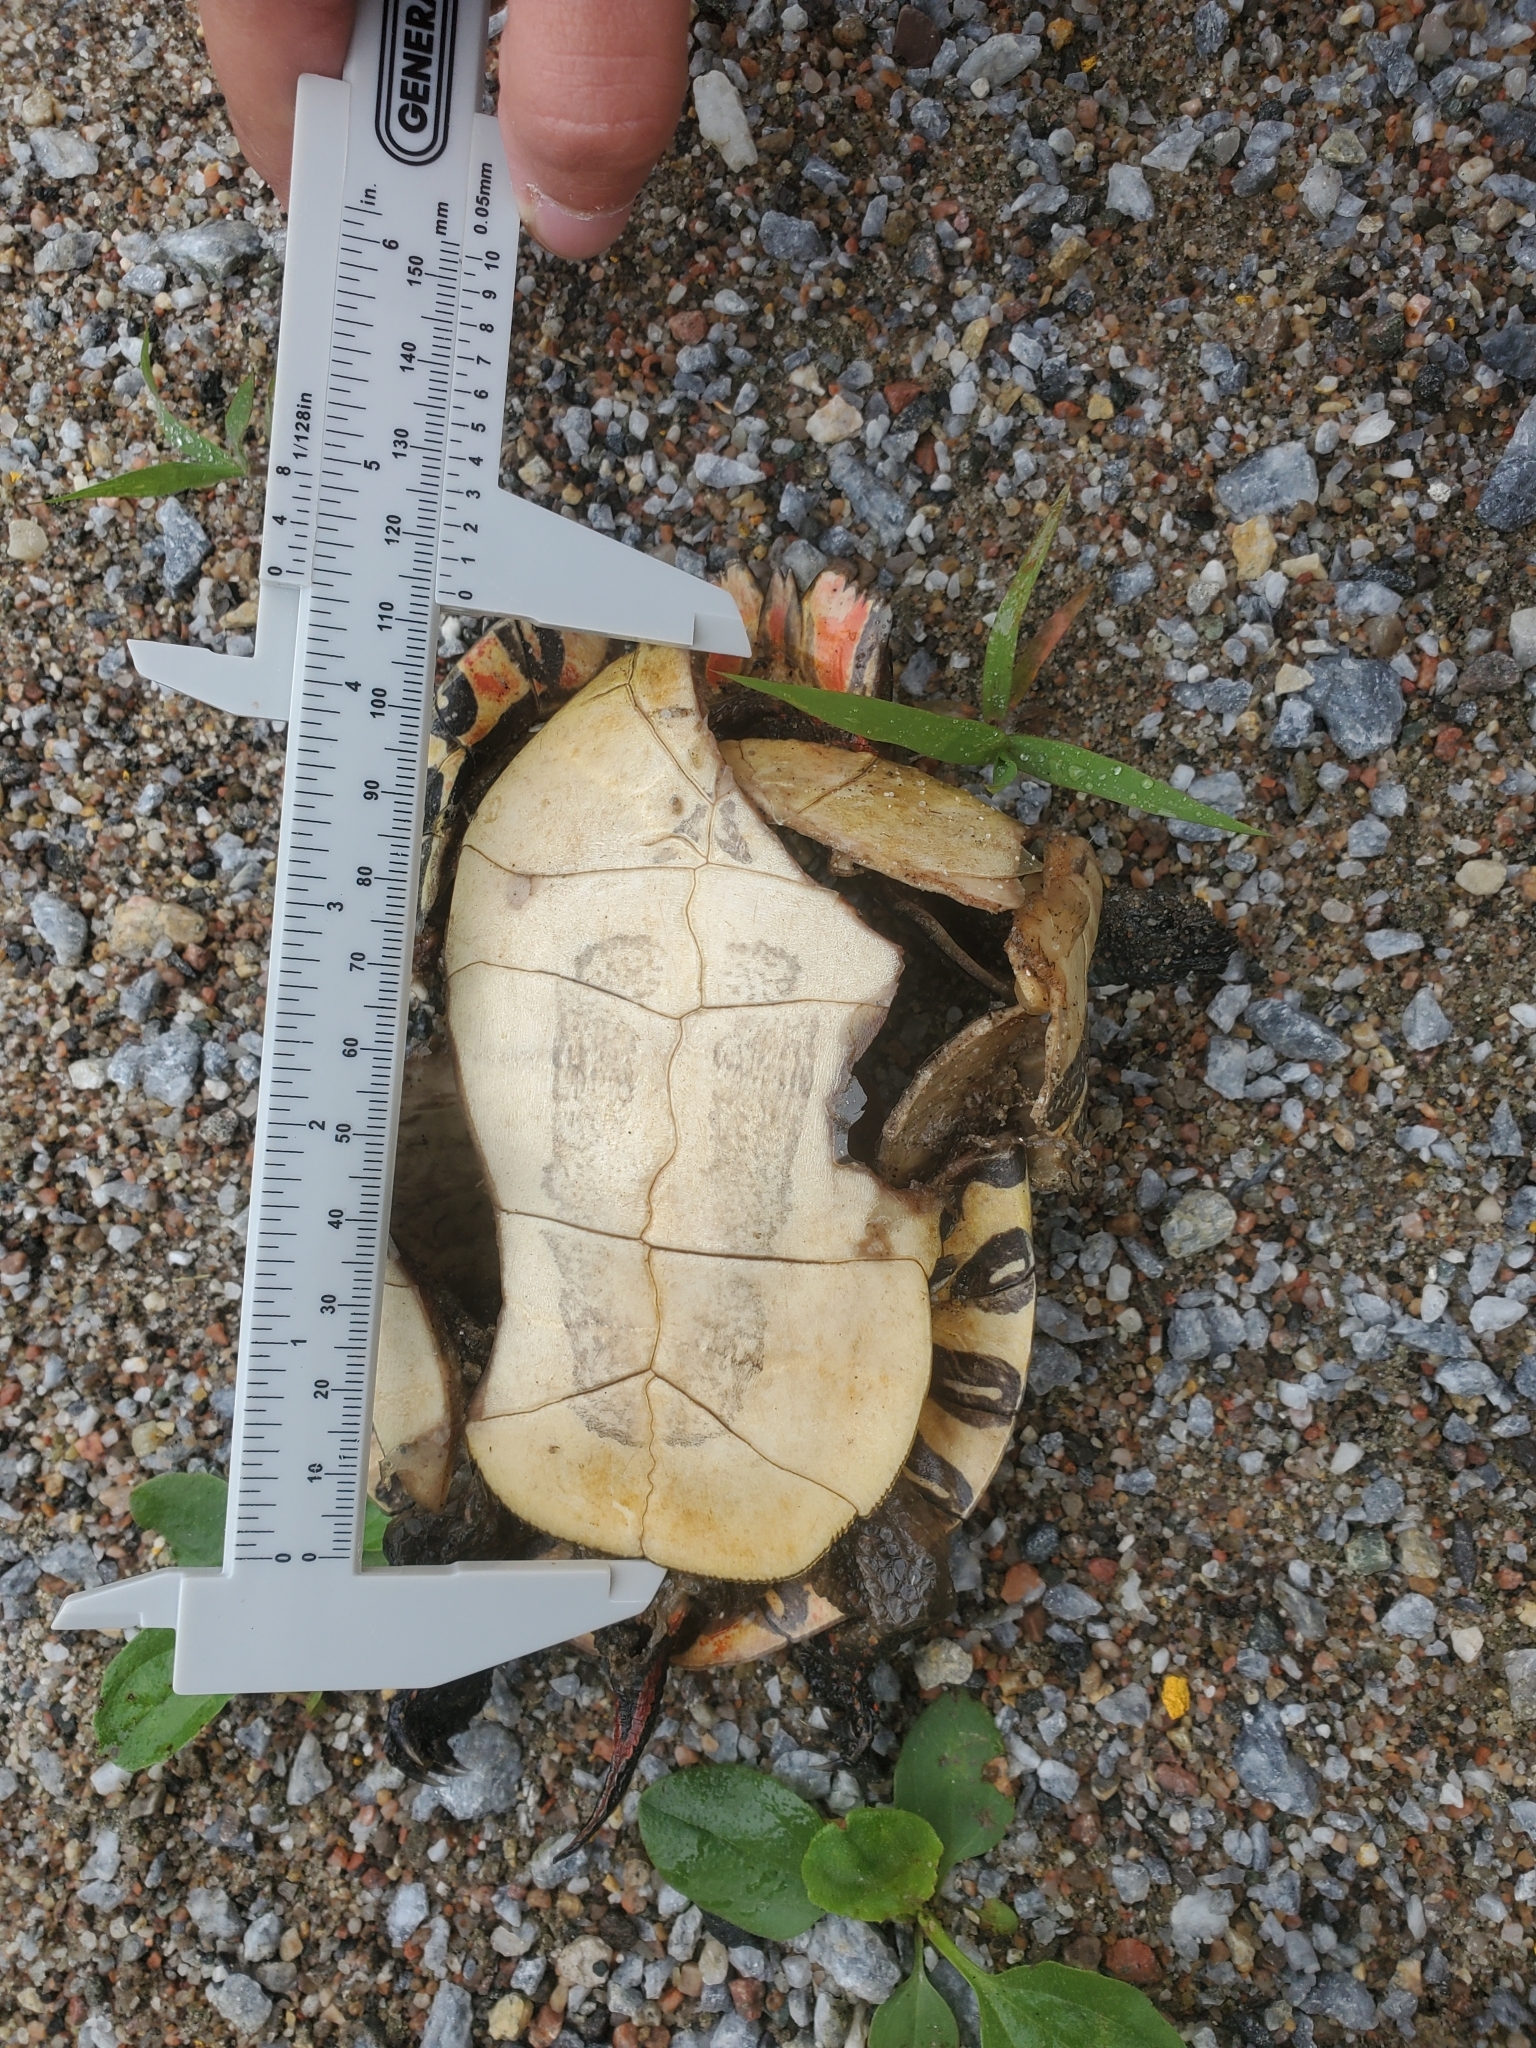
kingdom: Animalia
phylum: Chordata
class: Testudines
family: Emydidae
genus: Chrysemys
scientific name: Chrysemys picta
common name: Painted turtle
